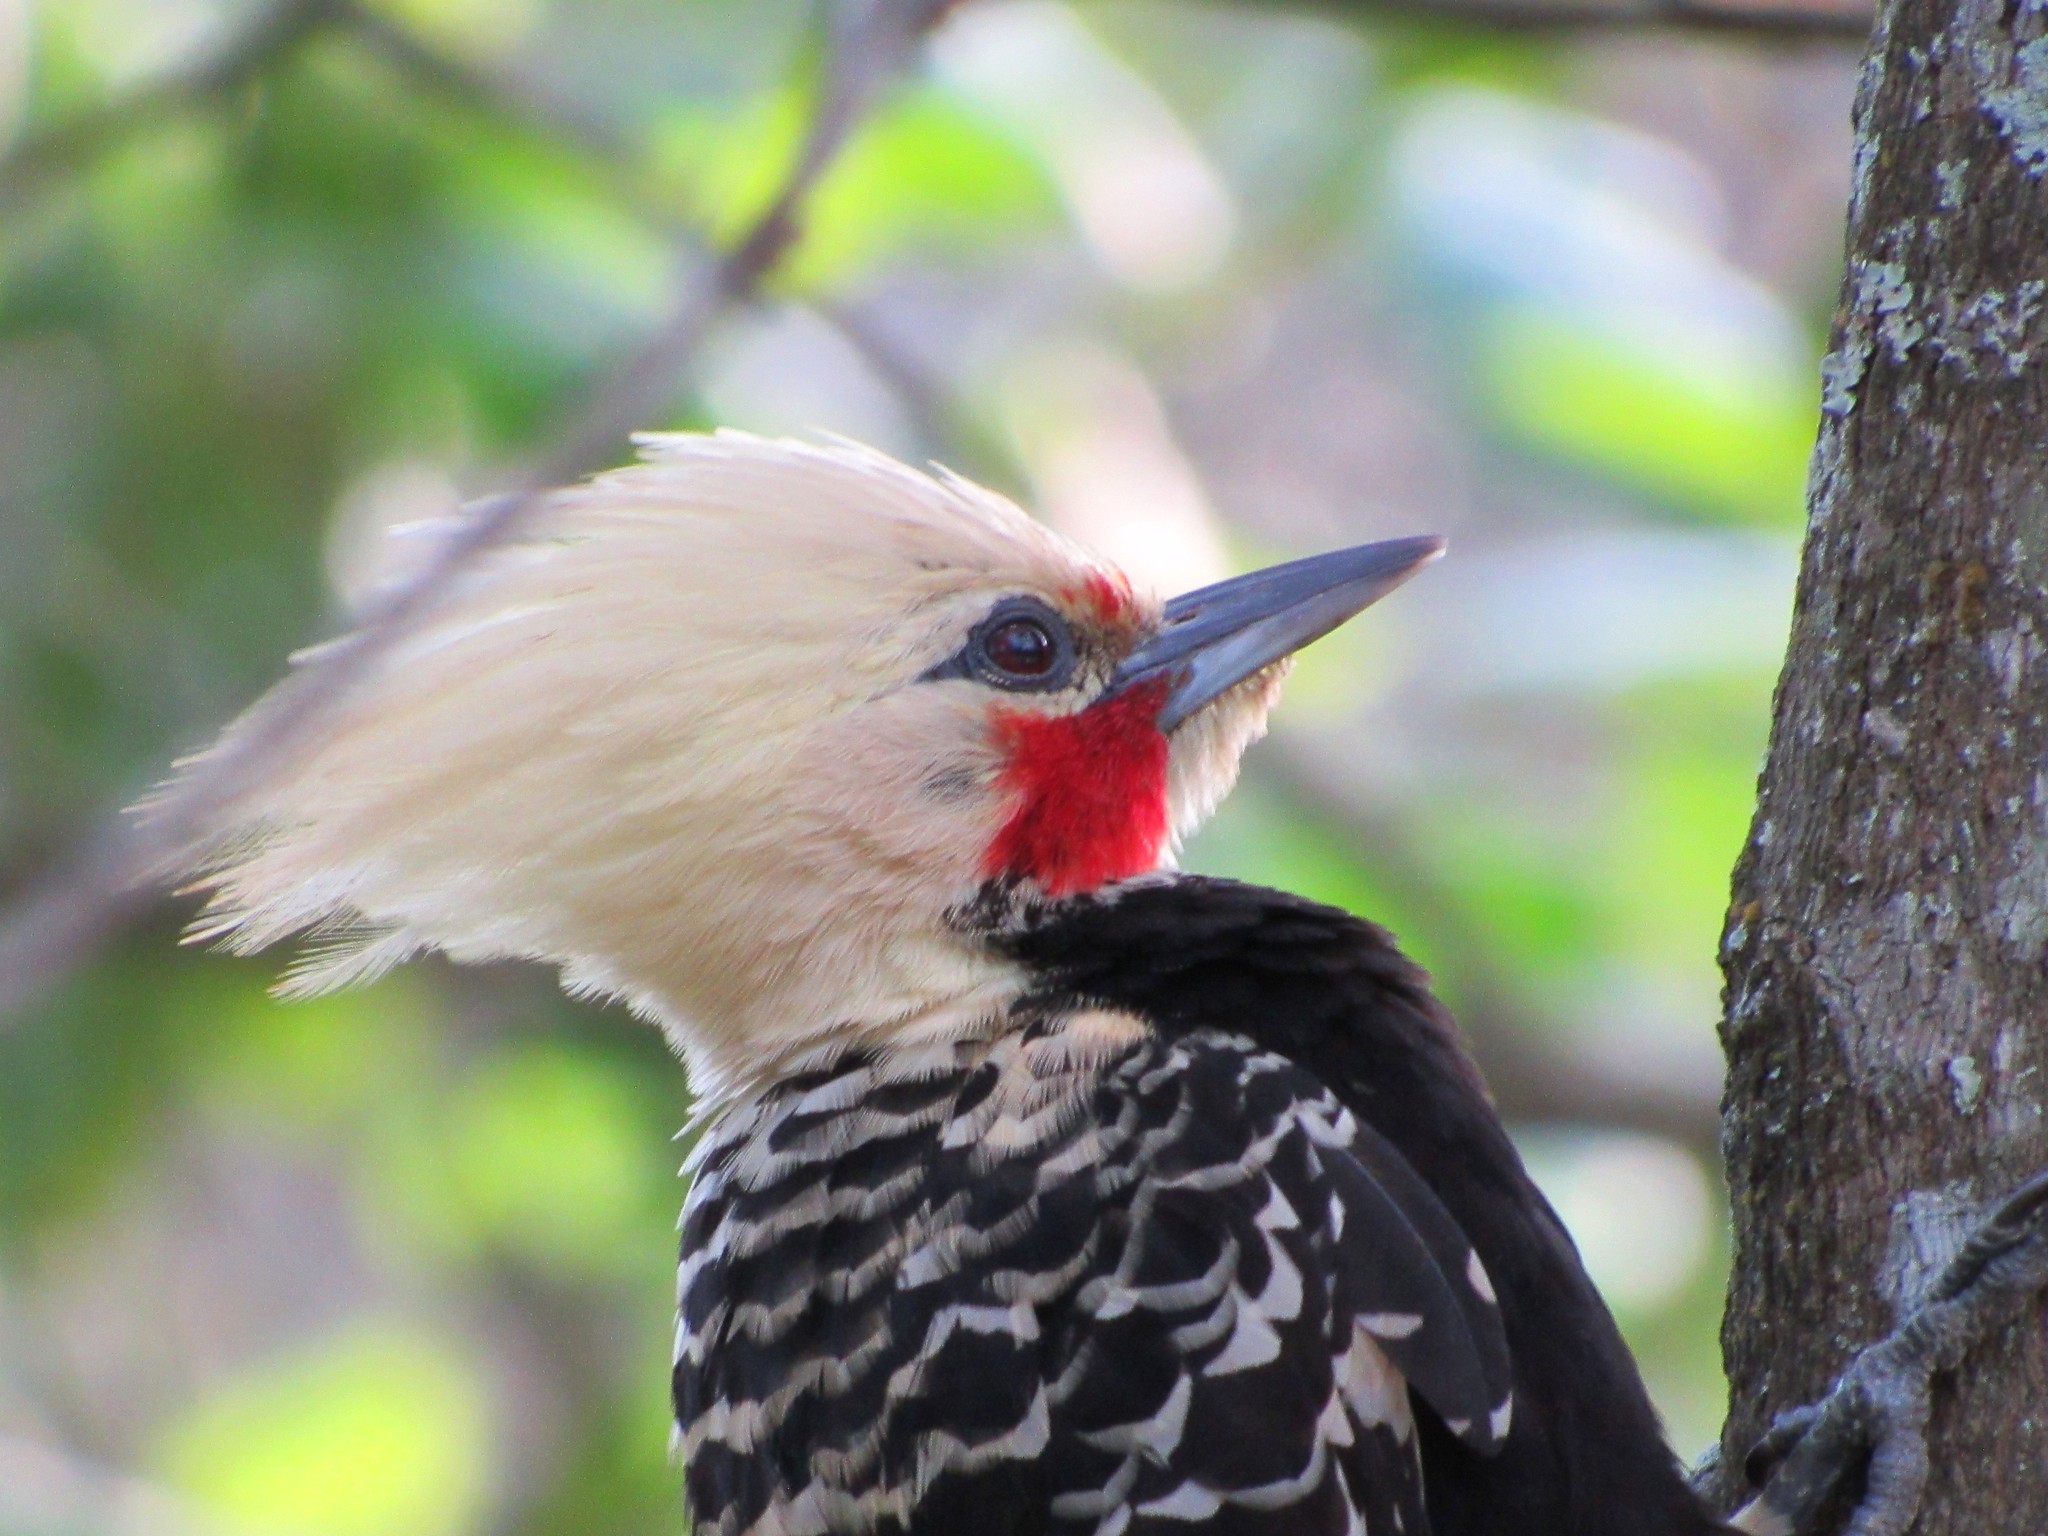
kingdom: Animalia
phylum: Chordata
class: Aves
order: Piciformes
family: Picidae
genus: Celeus
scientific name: Celeus flavescens
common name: Blond-crested woodpecker
